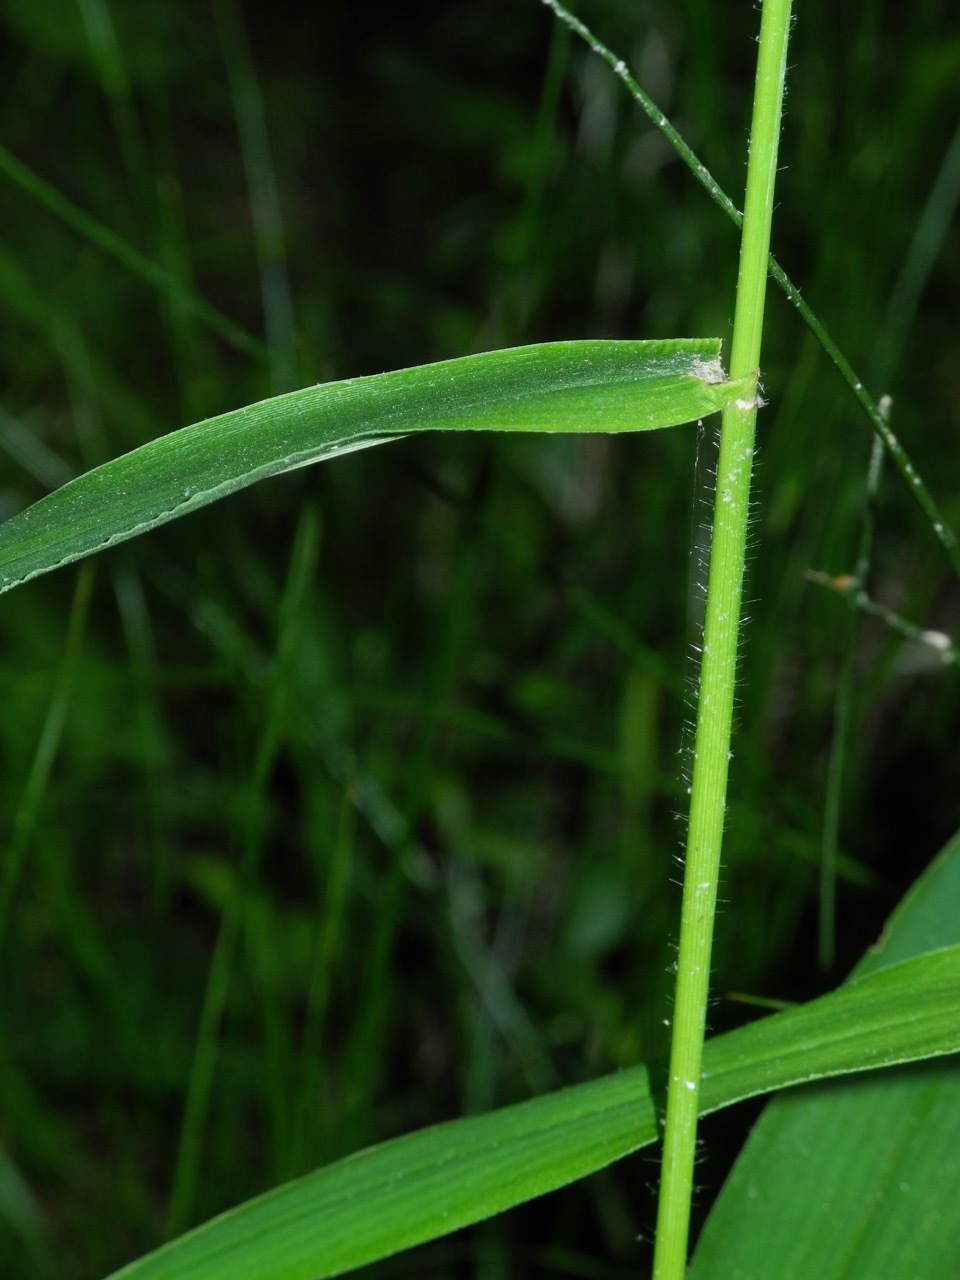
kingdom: Plantae
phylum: Tracheophyta
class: Liliopsida
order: Poales
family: Poaceae
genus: Dichanthelium
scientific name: Dichanthelium clandestinum
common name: Deer-tongue grass
